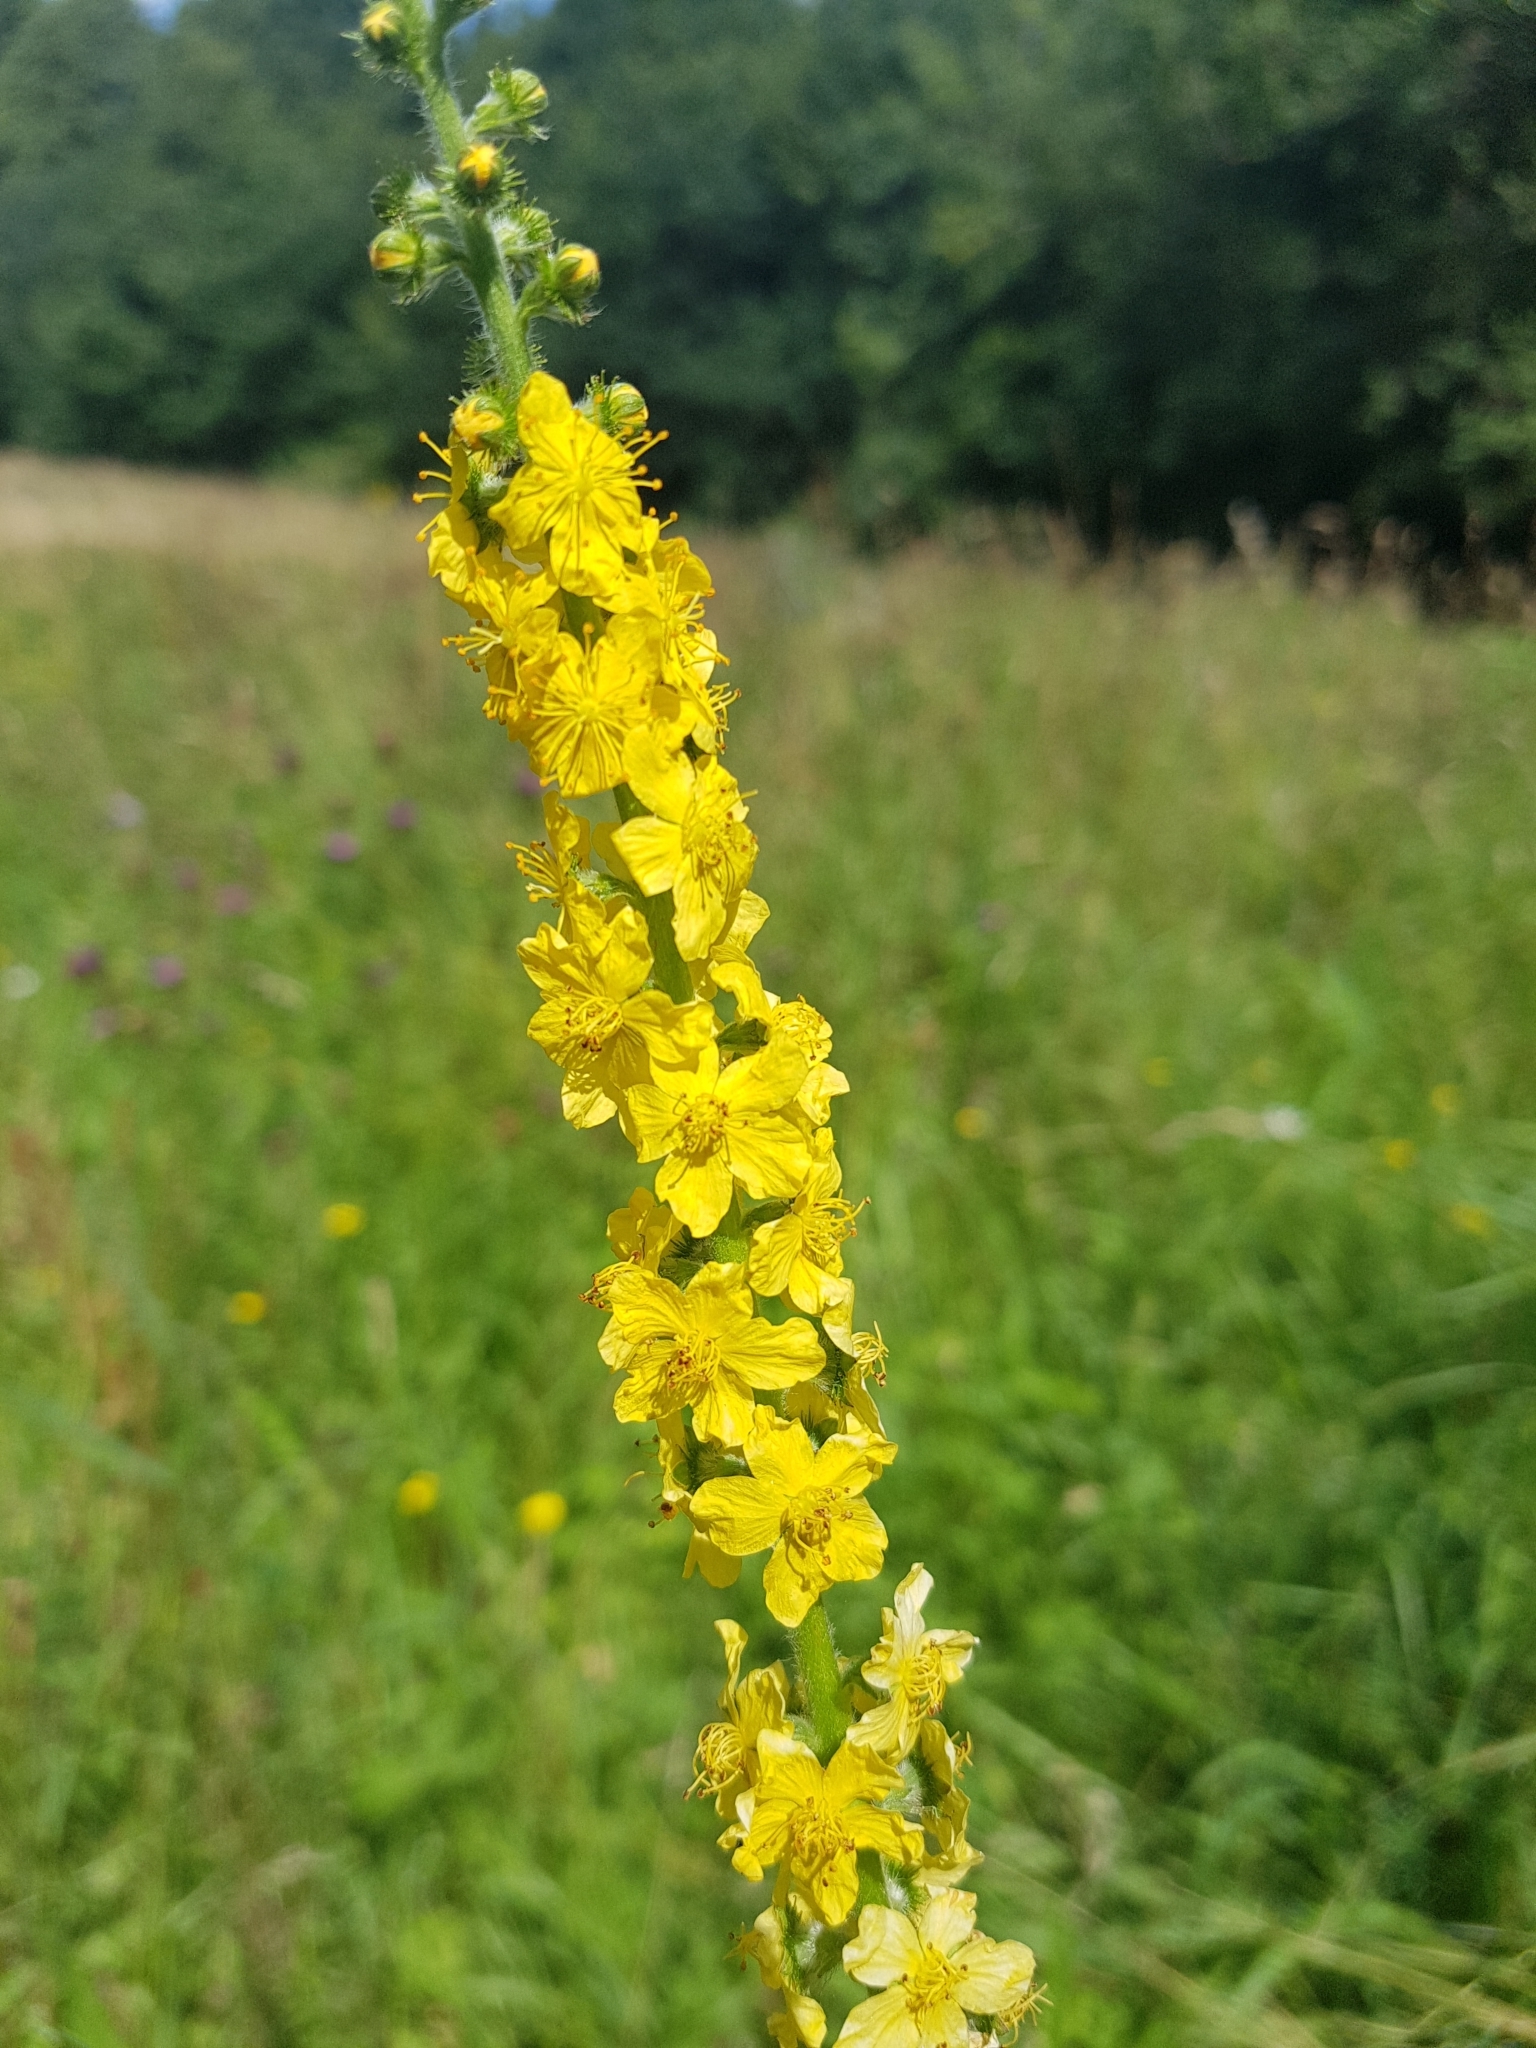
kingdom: Plantae
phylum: Tracheophyta
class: Magnoliopsida
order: Rosales
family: Rosaceae
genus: Agrimonia
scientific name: Agrimonia eupatoria
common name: Agrimony
